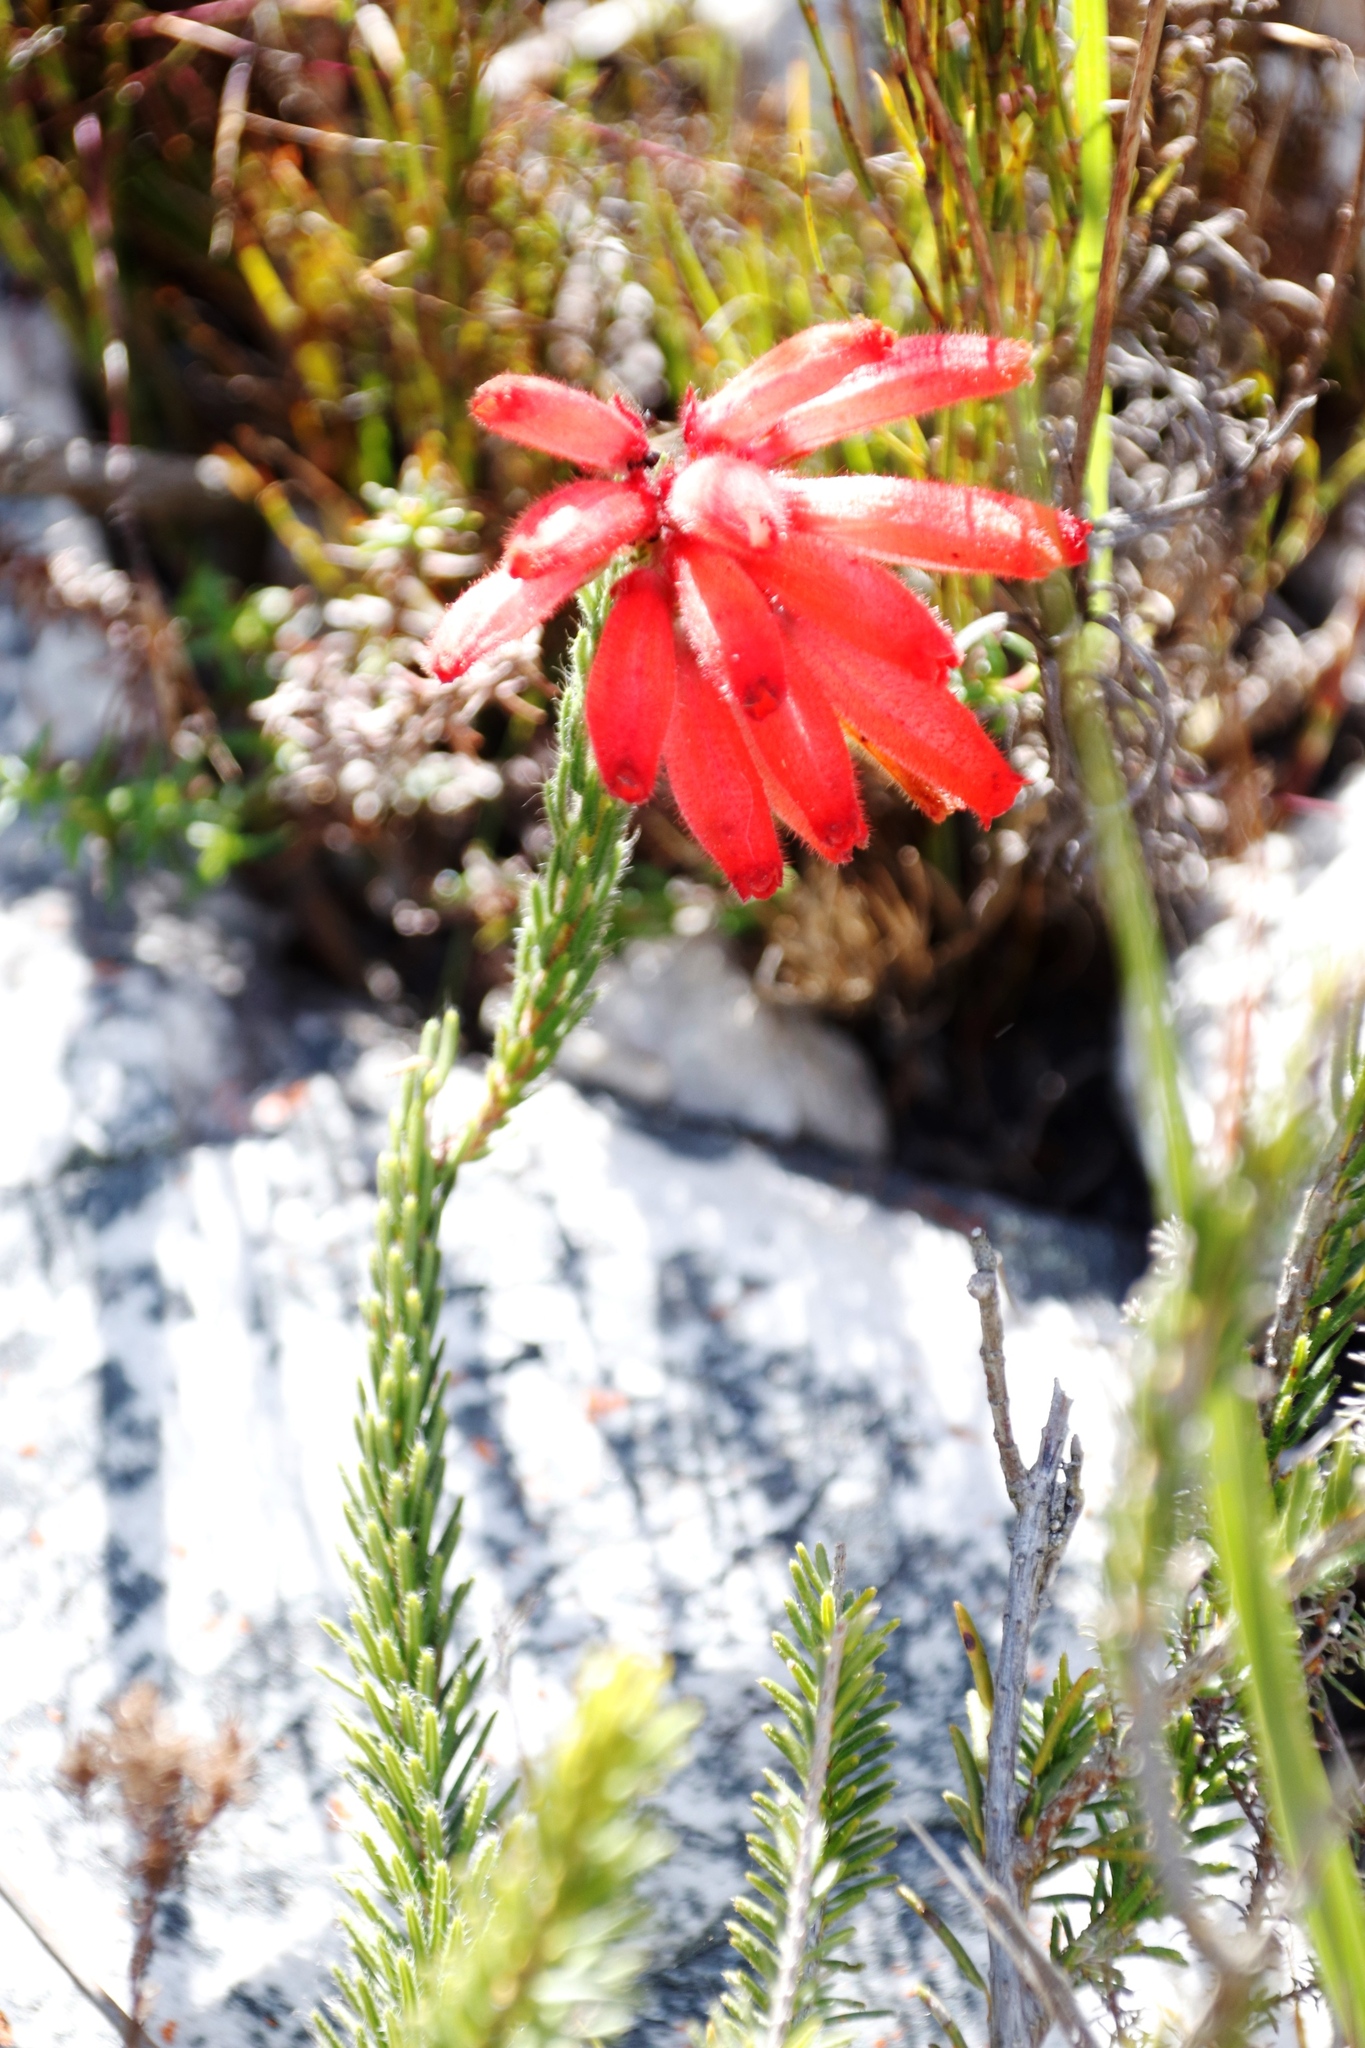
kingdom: Plantae
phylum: Tracheophyta
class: Magnoliopsida
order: Ericales
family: Ericaceae
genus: Erica
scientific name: Erica cerinthoides
